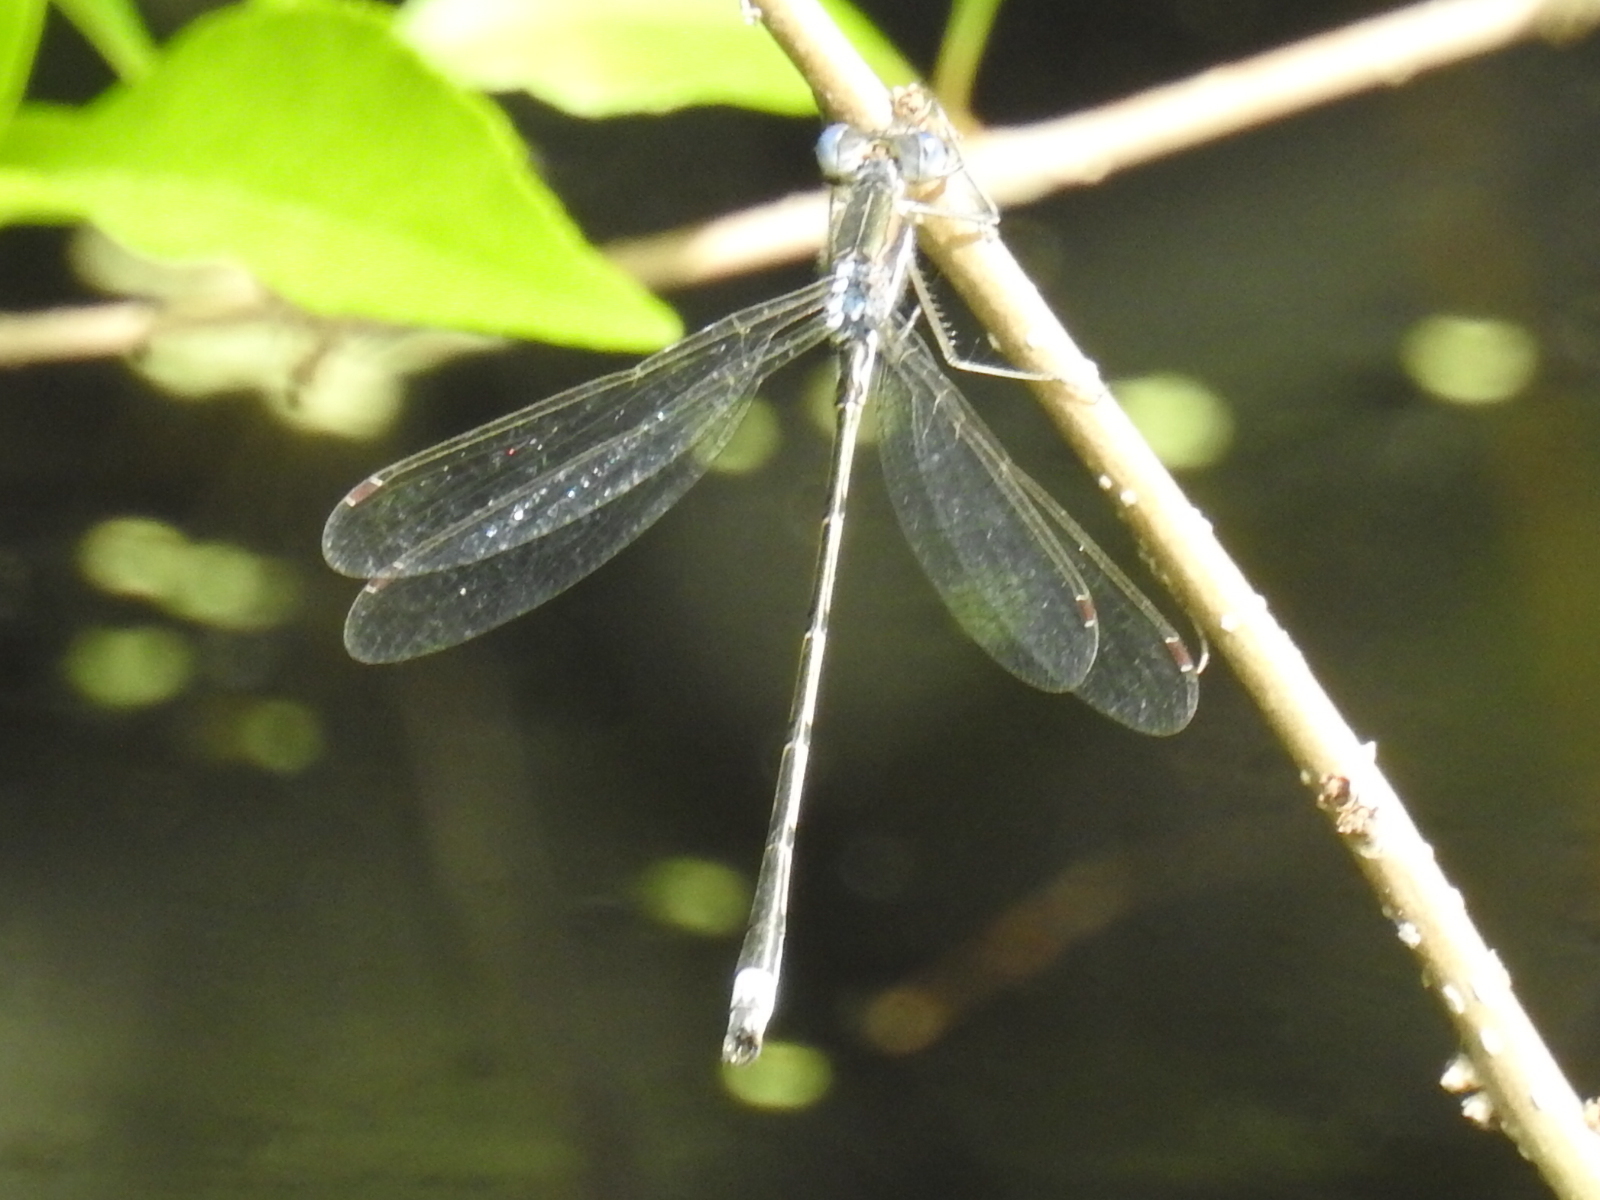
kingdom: Animalia
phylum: Arthropoda
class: Insecta
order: Odonata
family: Lestidae
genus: Lestes
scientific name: Lestes australis
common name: Southern spreadwing
